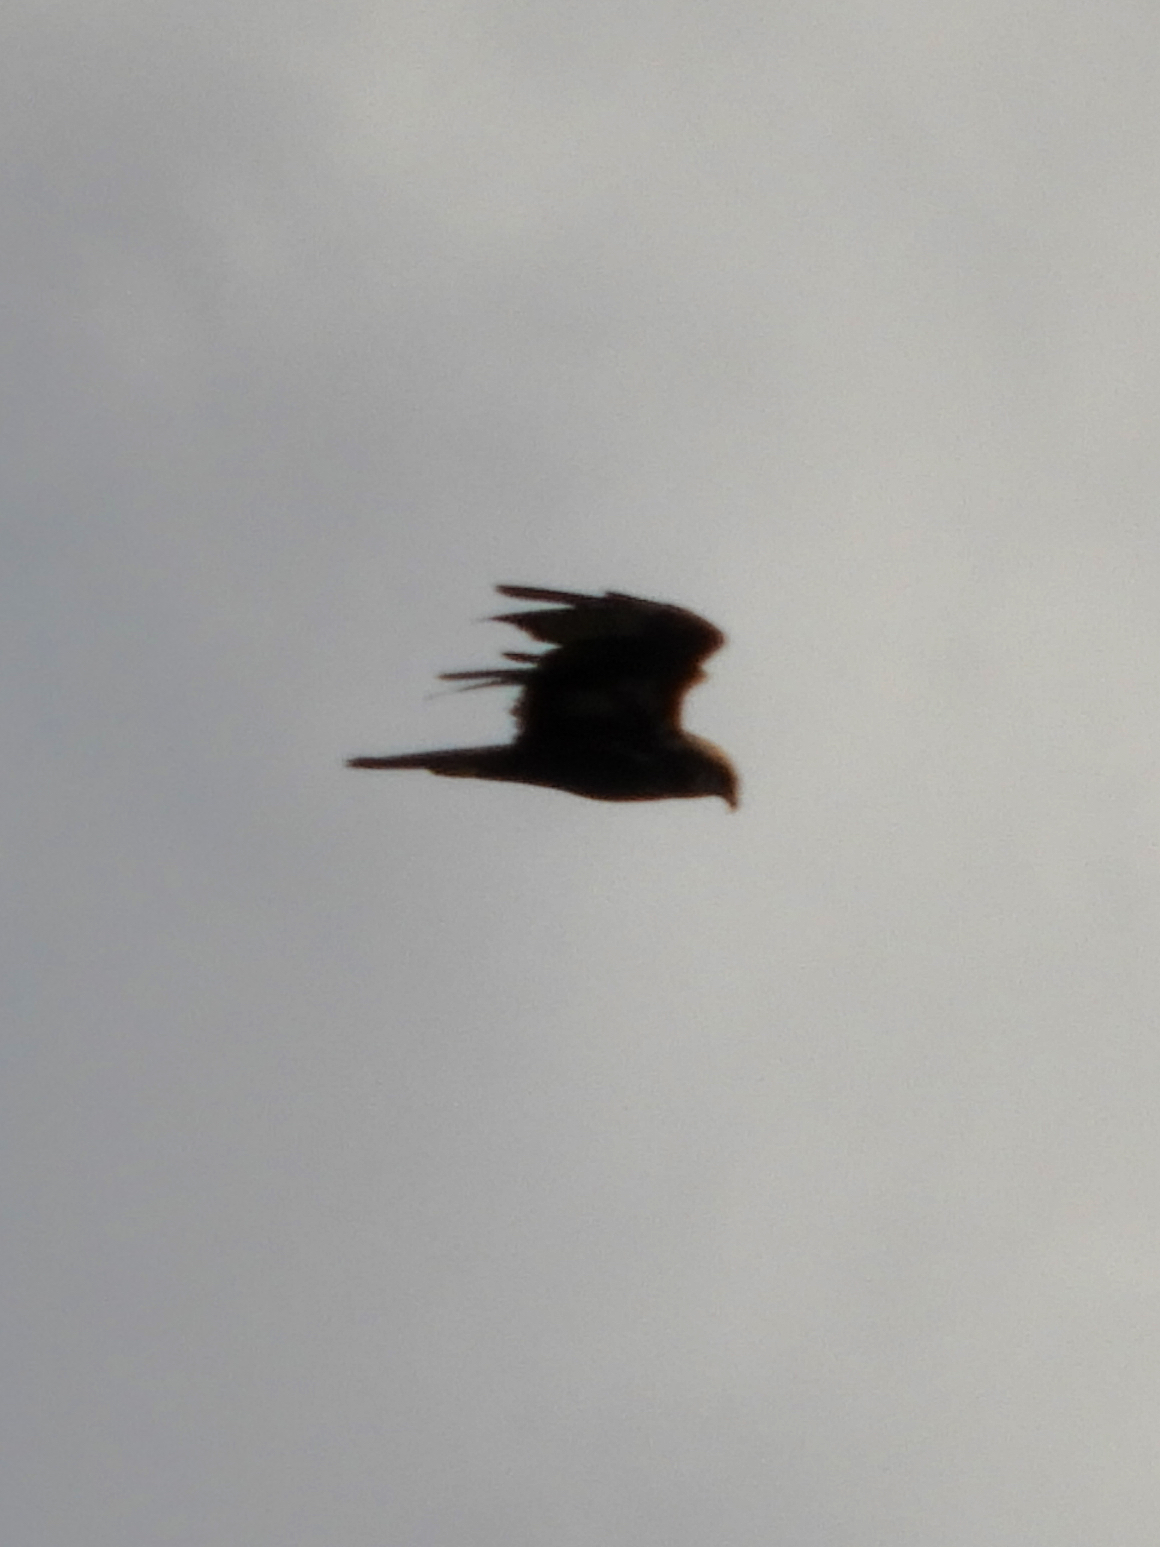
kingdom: Animalia
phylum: Chordata
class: Aves
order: Accipitriformes
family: Accipitridae
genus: Circus
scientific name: Circus aeruginosus
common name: Western marsh harrier
